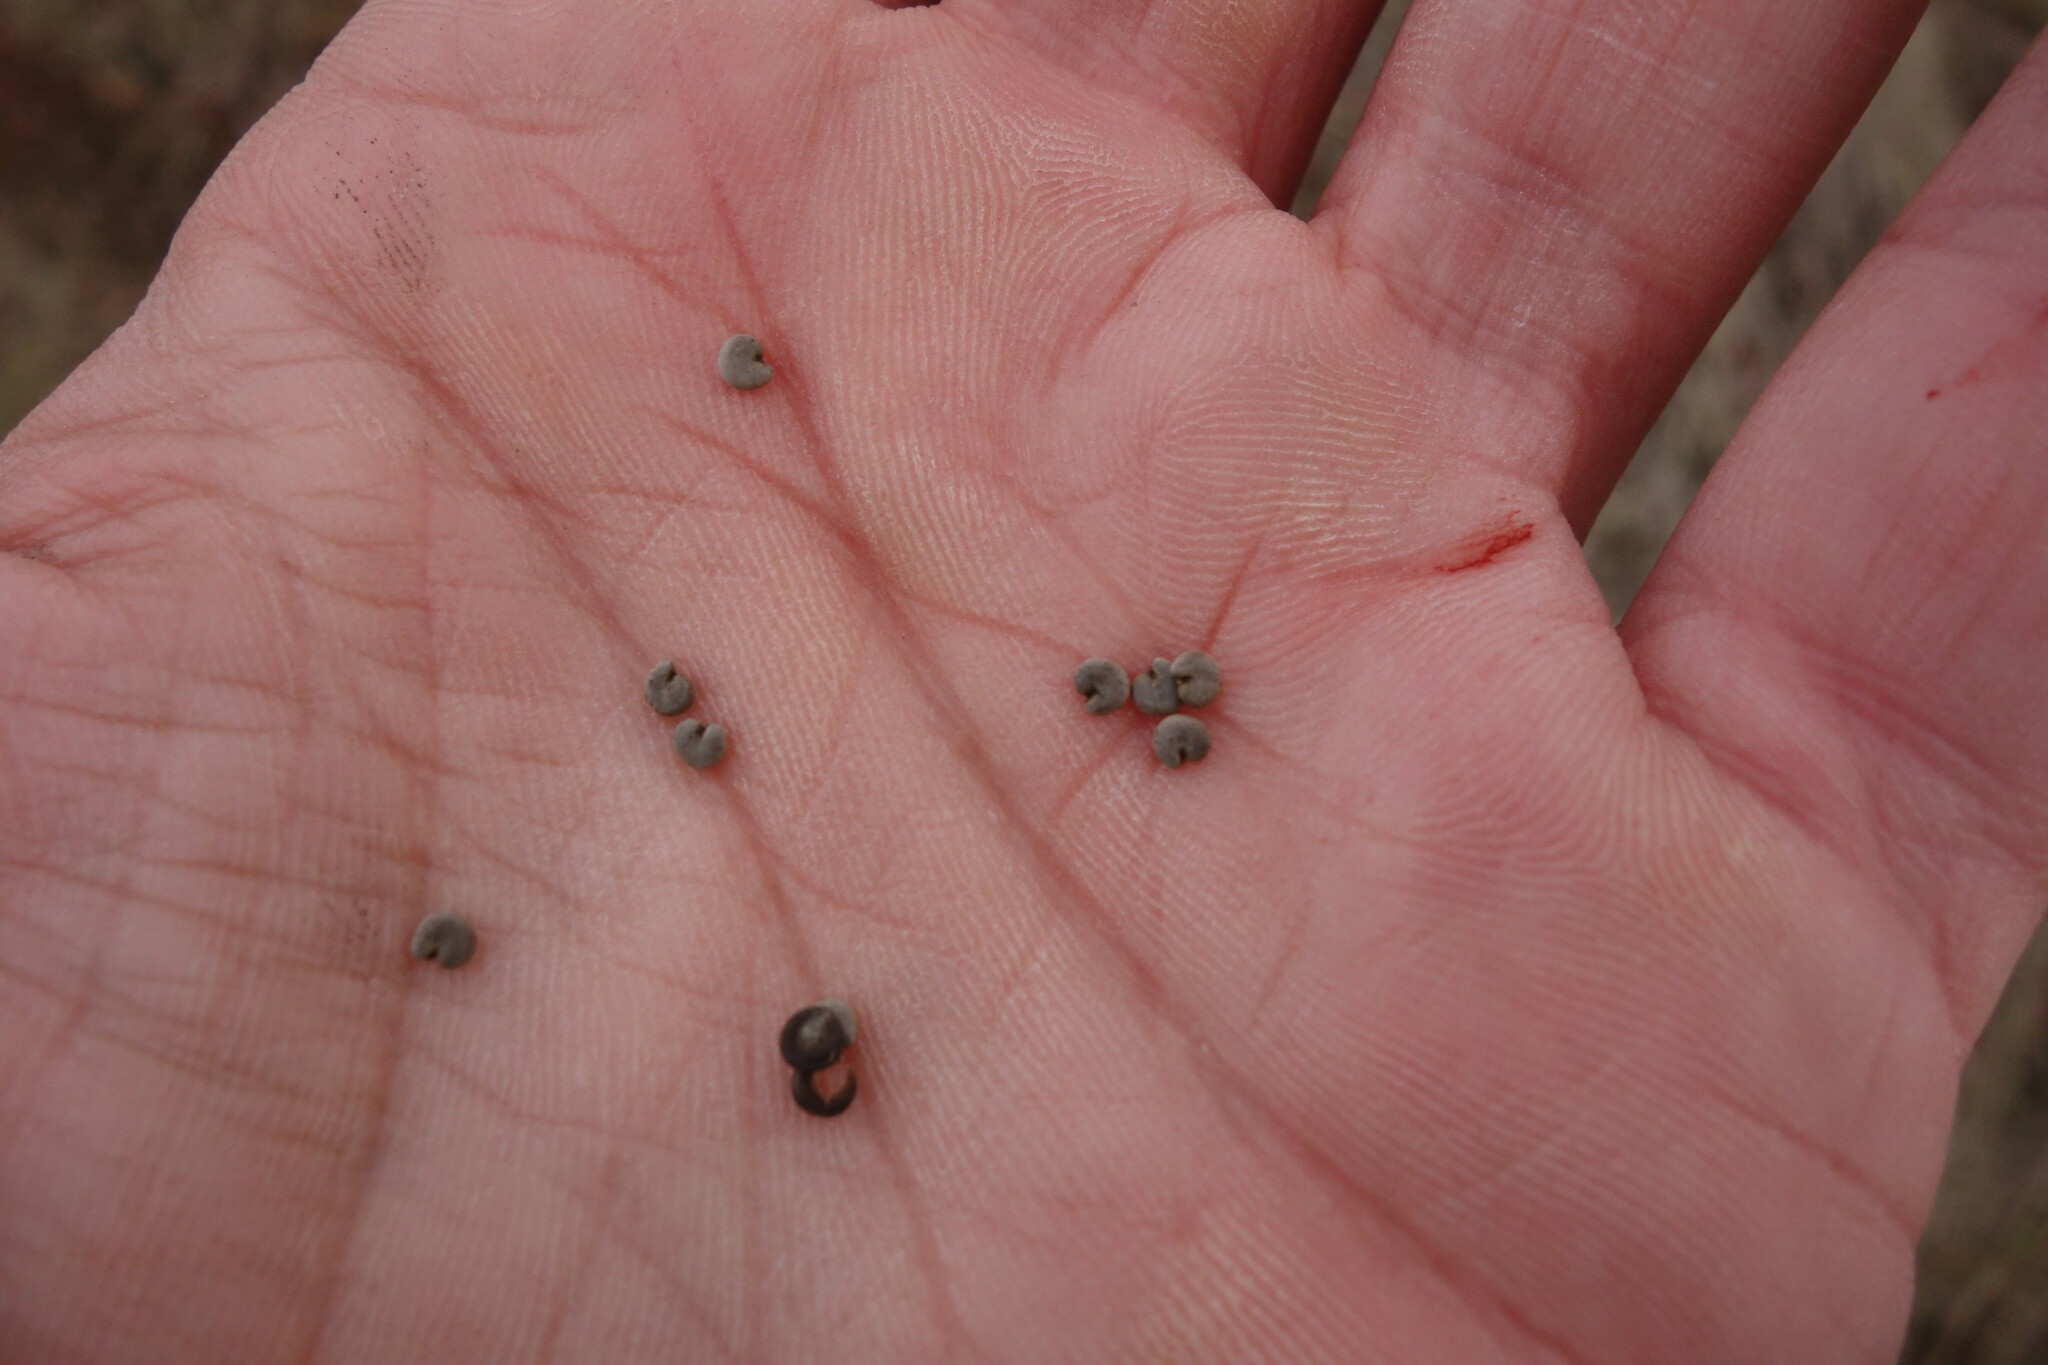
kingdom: Plantae
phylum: Tracheophyta
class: Magnoliopsida
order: Malvales
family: Malvaceae
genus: Malva
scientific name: Malva thuringiaca
